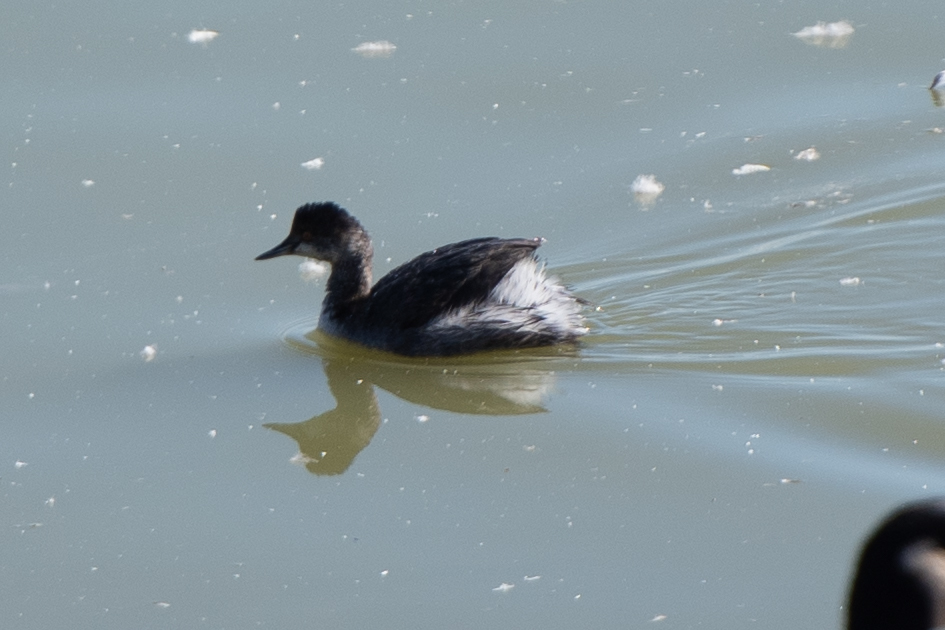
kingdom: Animalia
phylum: Chordata
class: Aves
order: Podicipediformes
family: Podicipedidae
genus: Podiceps
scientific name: Podiceps nigricollis
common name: Black-necked grebe
